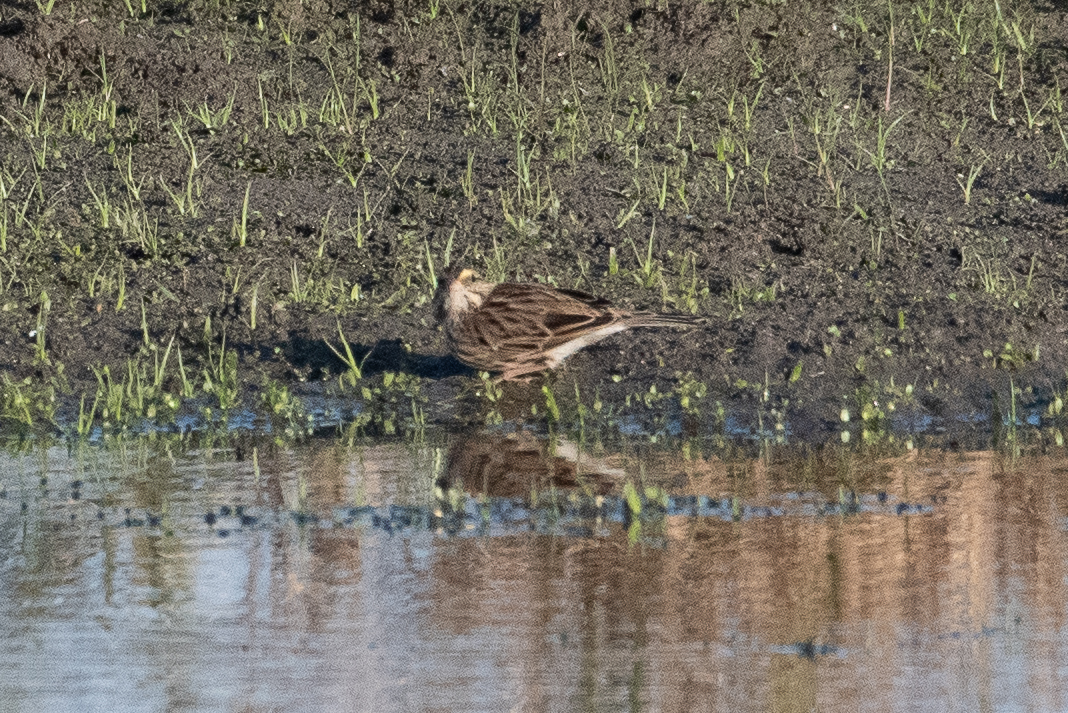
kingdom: Animalia
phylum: Chordata
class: Aves
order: Passeriformes
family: Passerellidae
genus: Passerculus
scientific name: Passerculus sandwichensis
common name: Savannah sparrow
